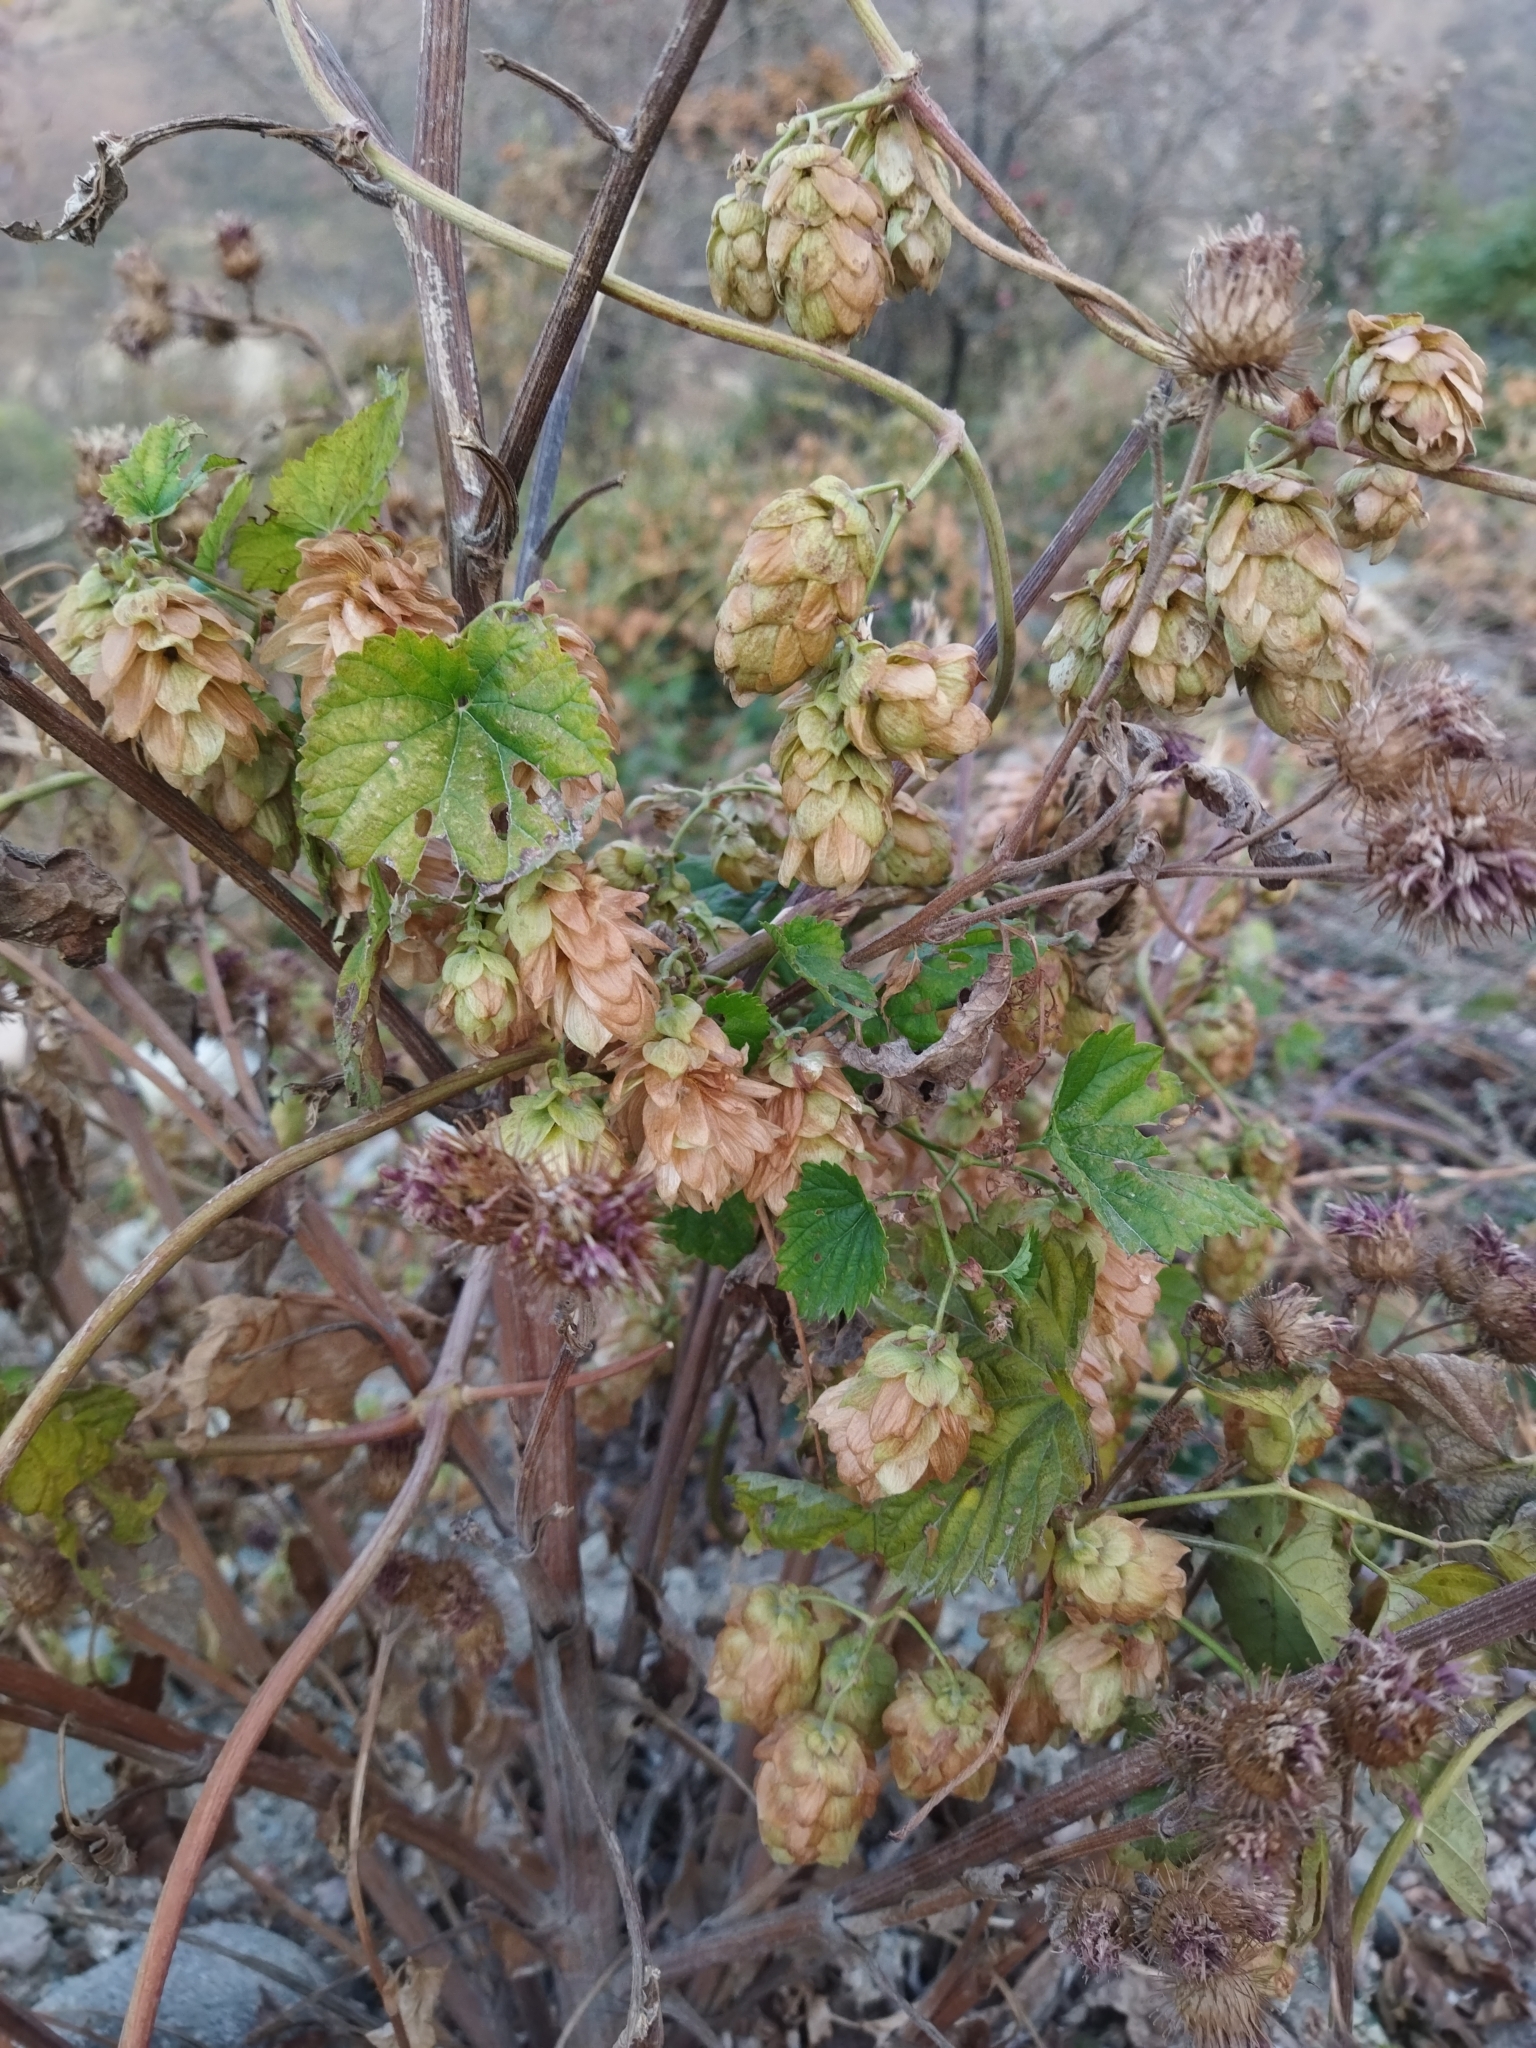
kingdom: Plantae
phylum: Tracheophyta
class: Magnoliopsida
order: Rosales
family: Cannabaceae
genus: Humulus
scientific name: Humulus lupulus
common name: Hop
